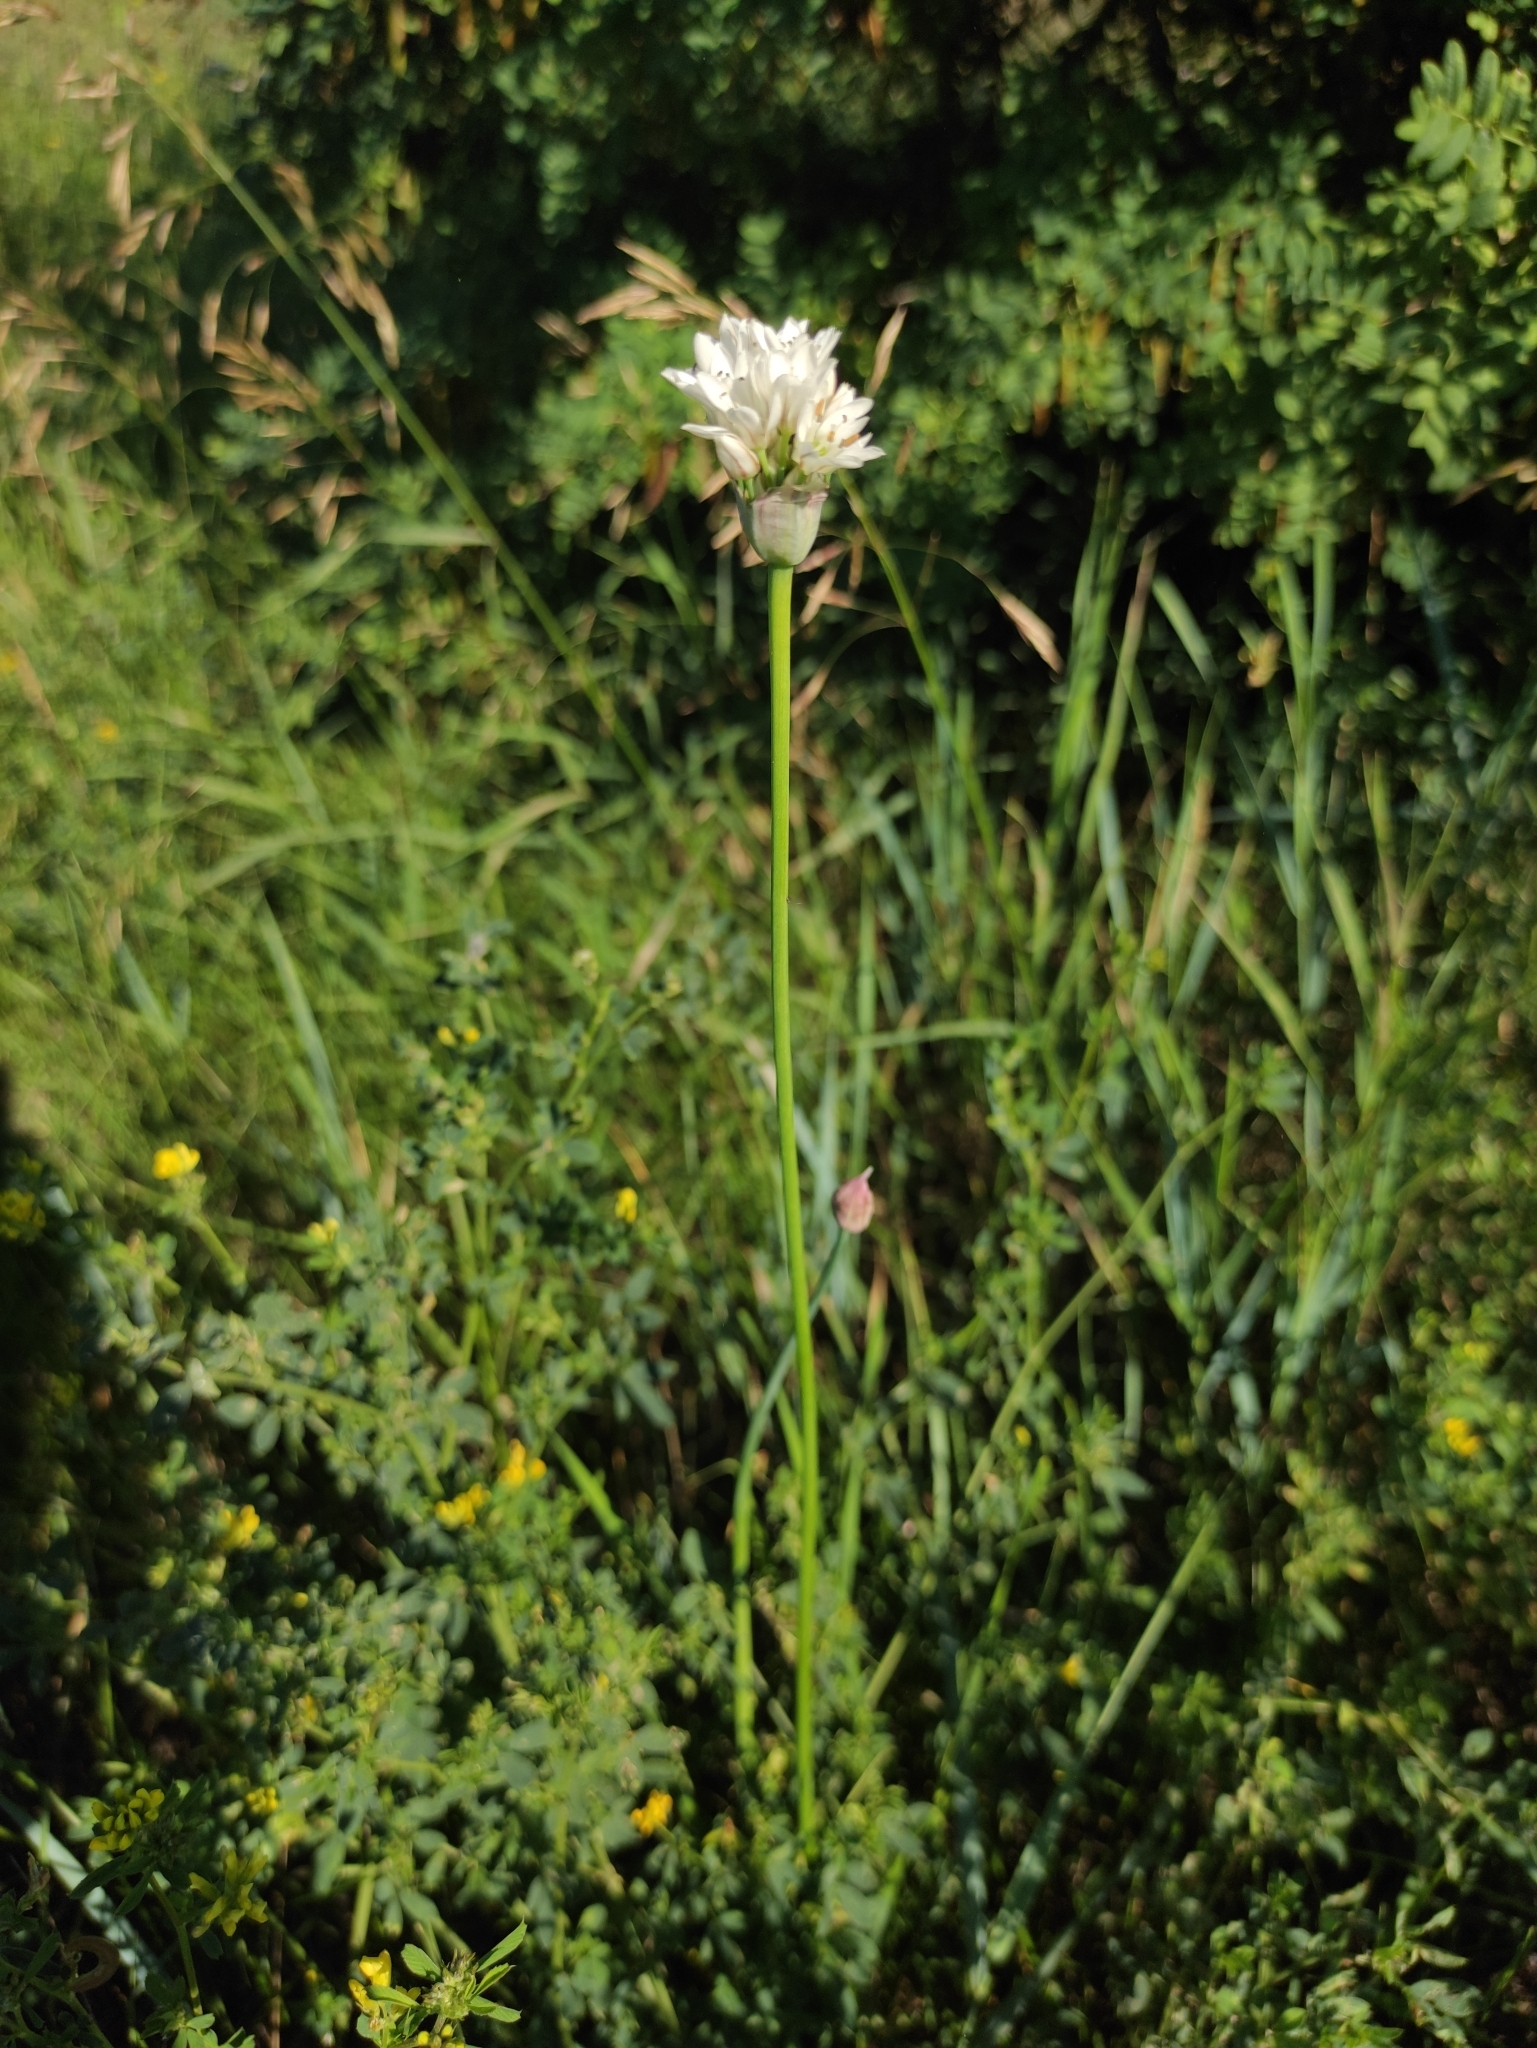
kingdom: Plantae
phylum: Tracheophyta
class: Liliopsida
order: Asparagales
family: Amaryllidaceae
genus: Allium
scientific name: Allium ramosum
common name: Fragrant garlic
